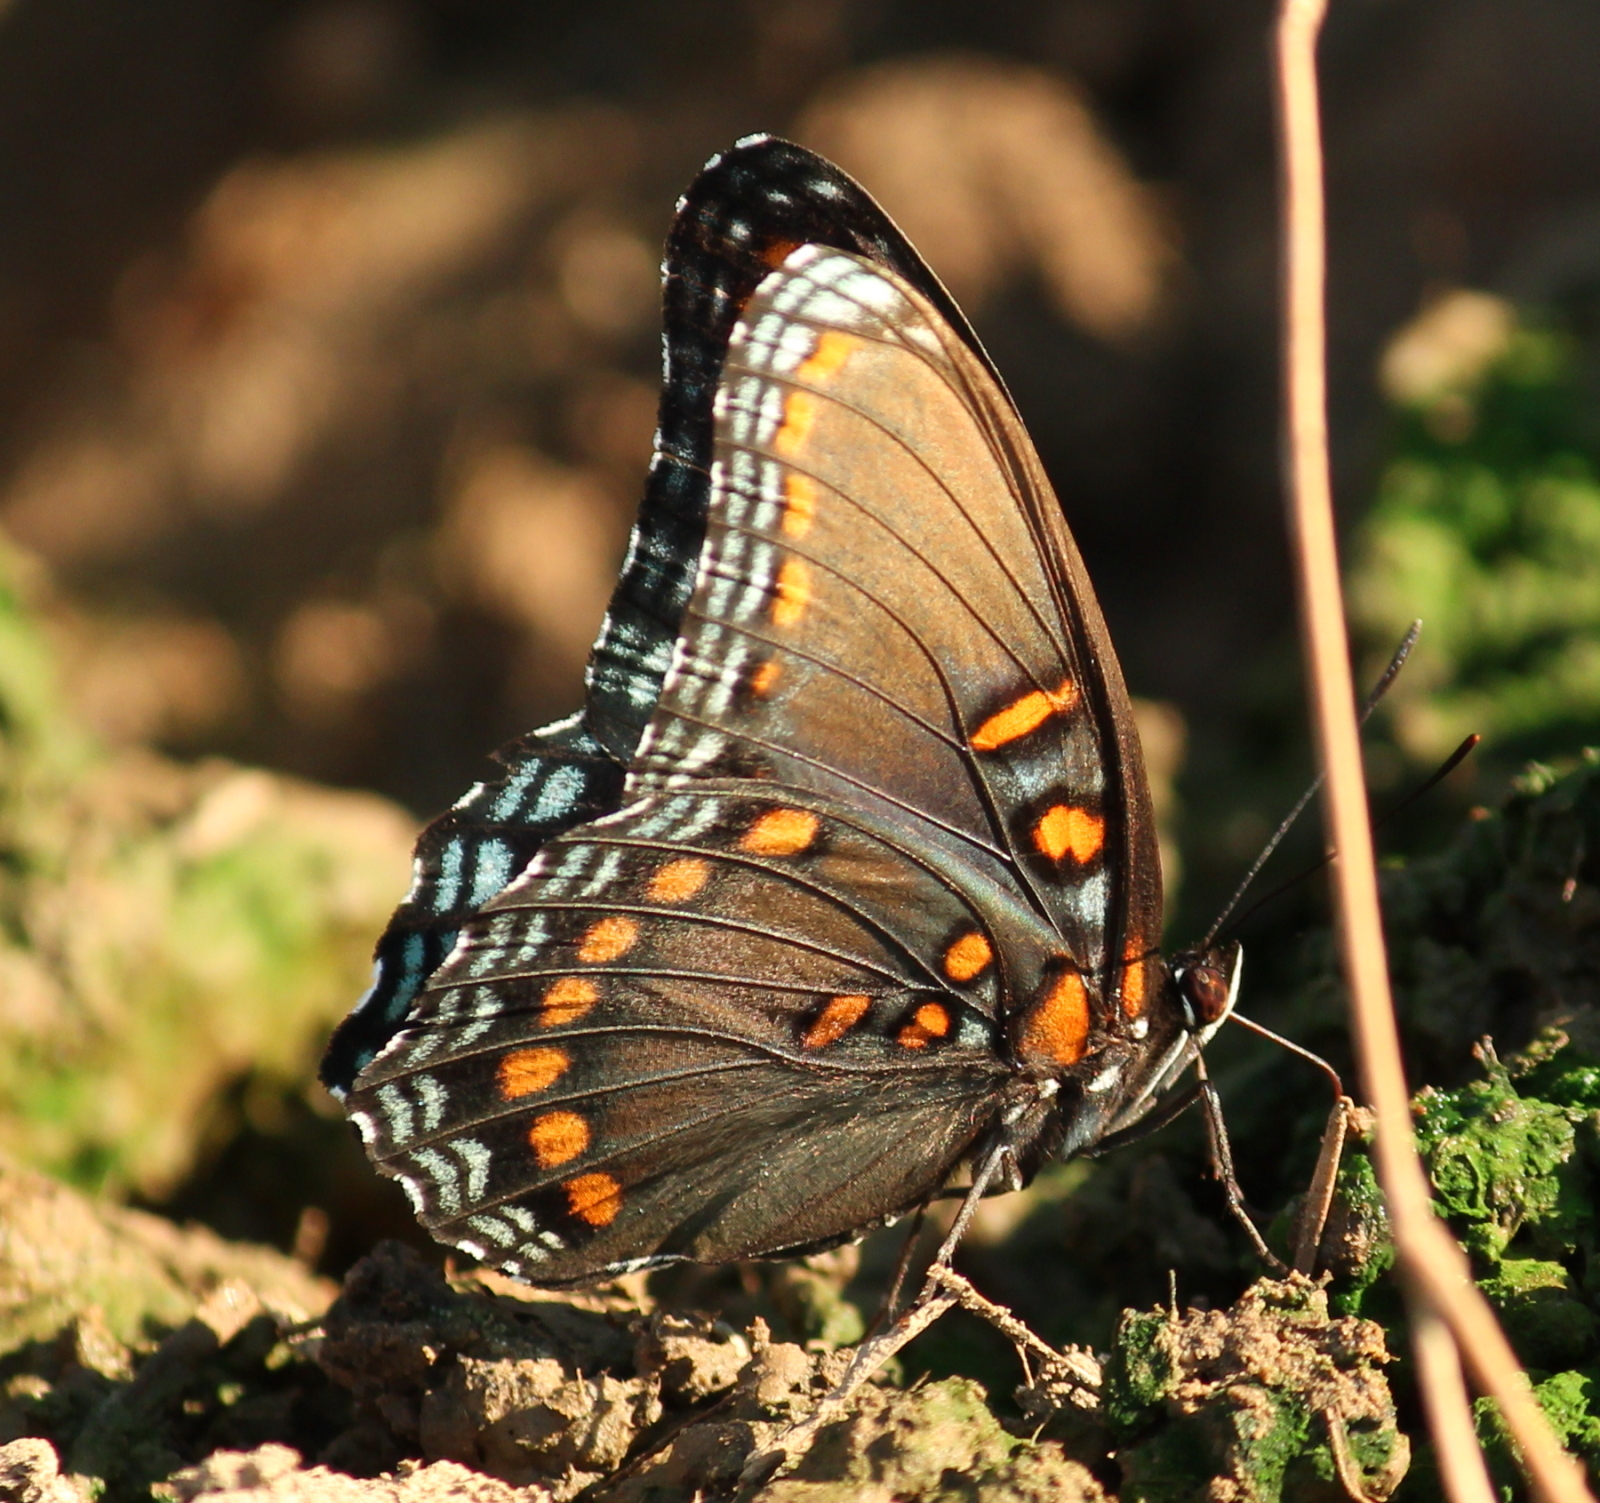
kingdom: Animalia
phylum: Arthropoda
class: Insecta
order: Lepidoptera
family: Nymphalidae
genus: Limenitis
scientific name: Limenitis astyanax
